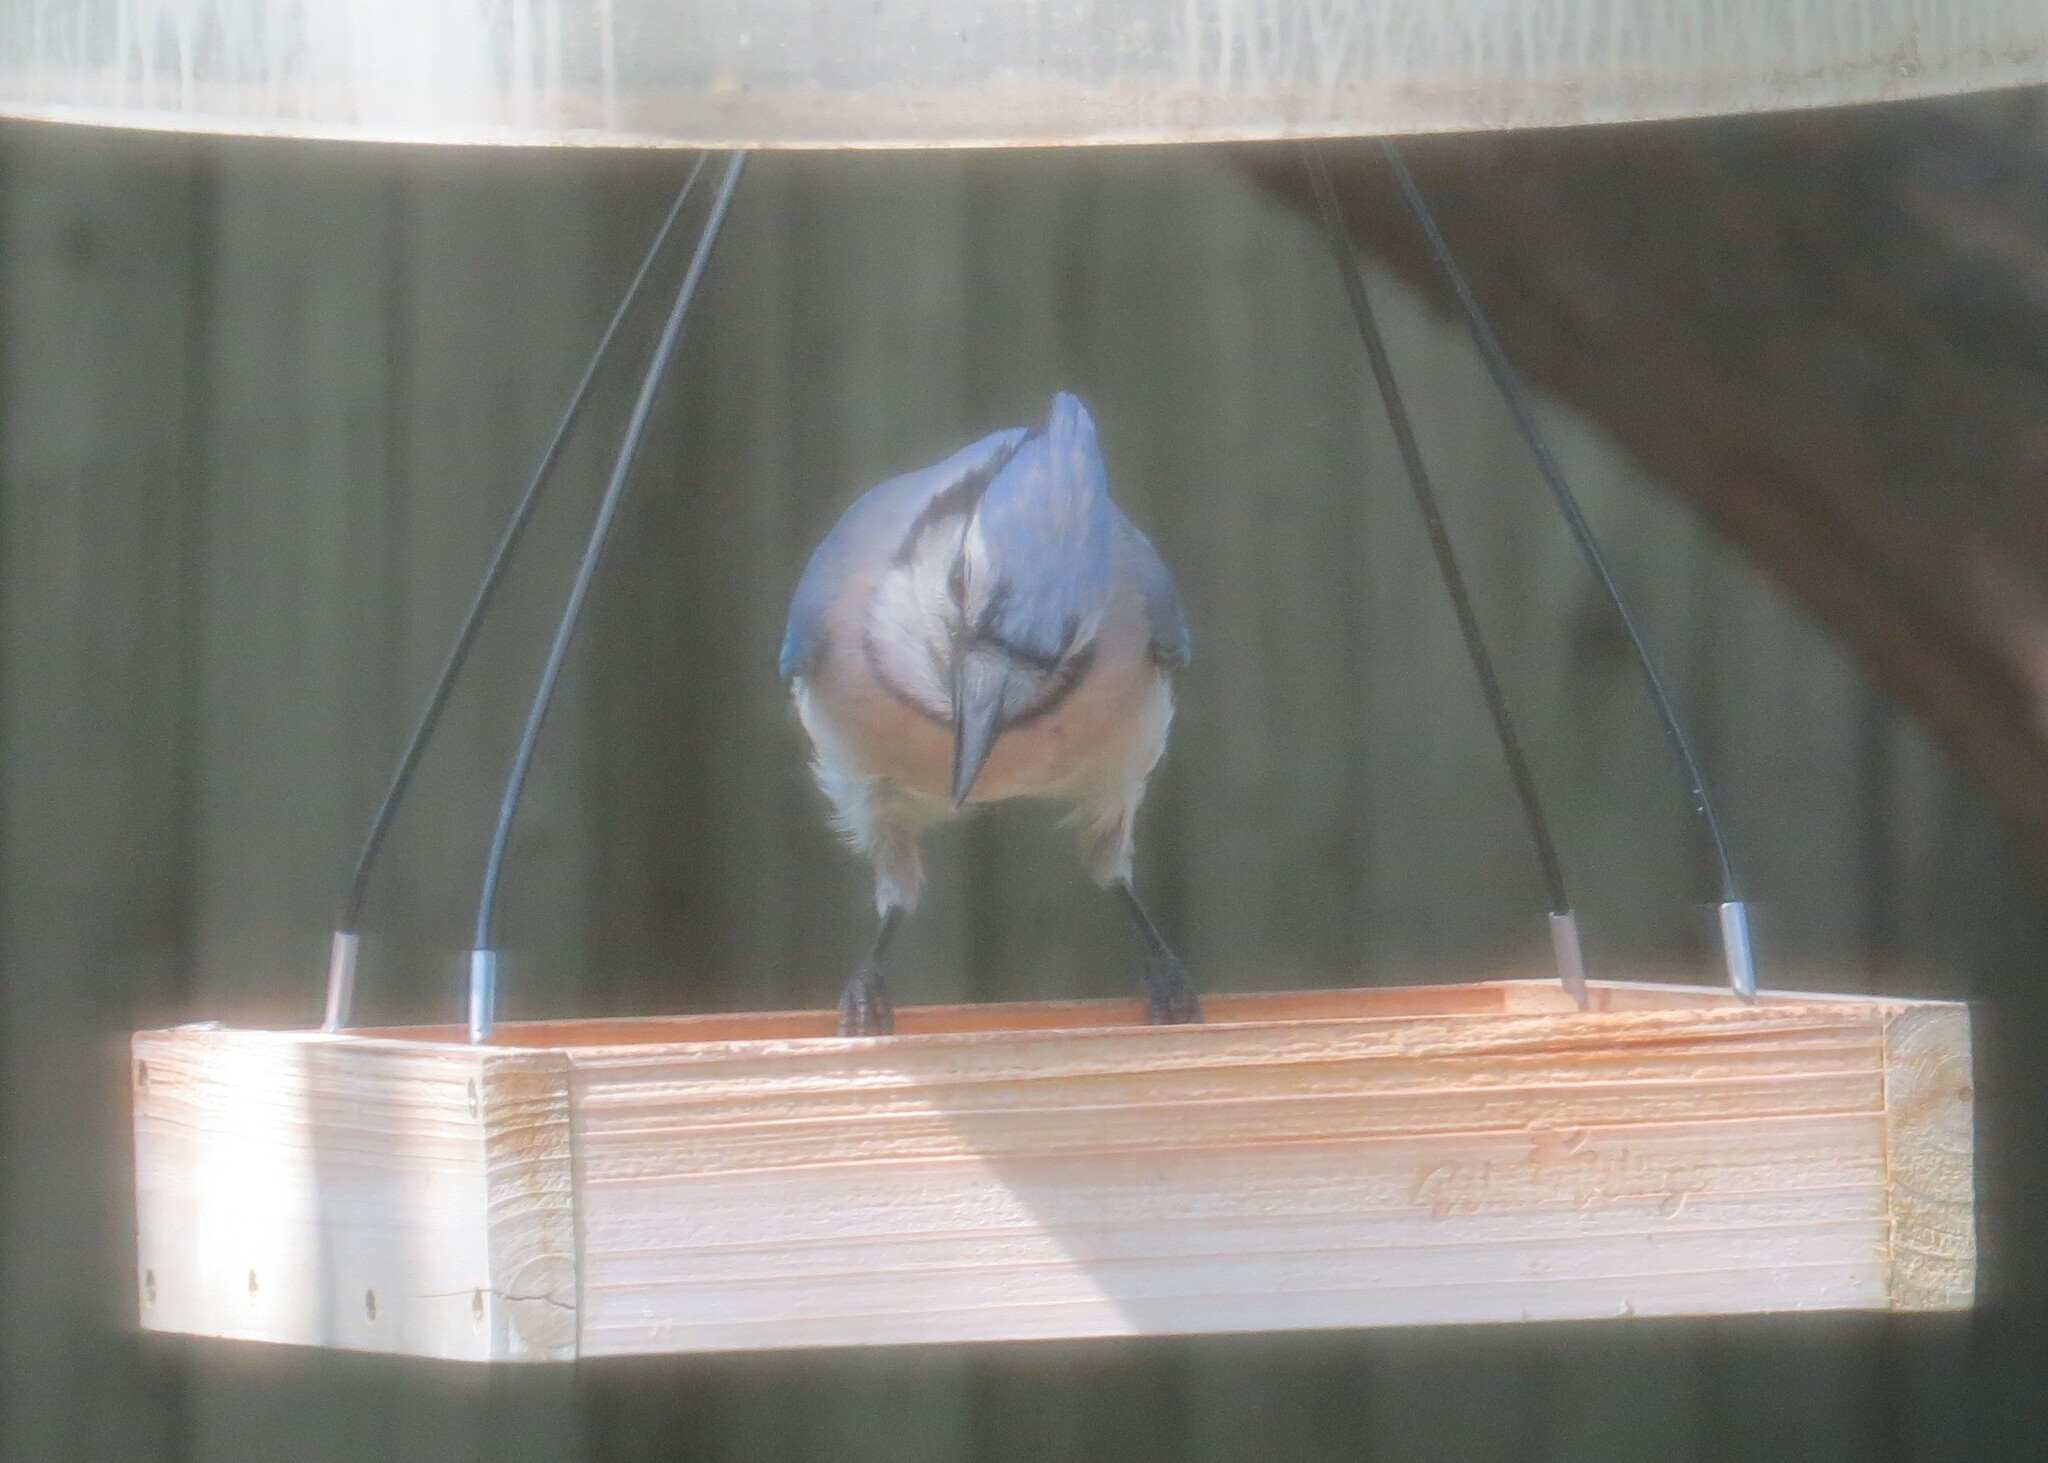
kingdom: Animalia
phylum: Chordata
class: Aves
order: Passeriformes
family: Corvidae
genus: Cyanocitta
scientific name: Cyanocitta cristata
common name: Blue jay
